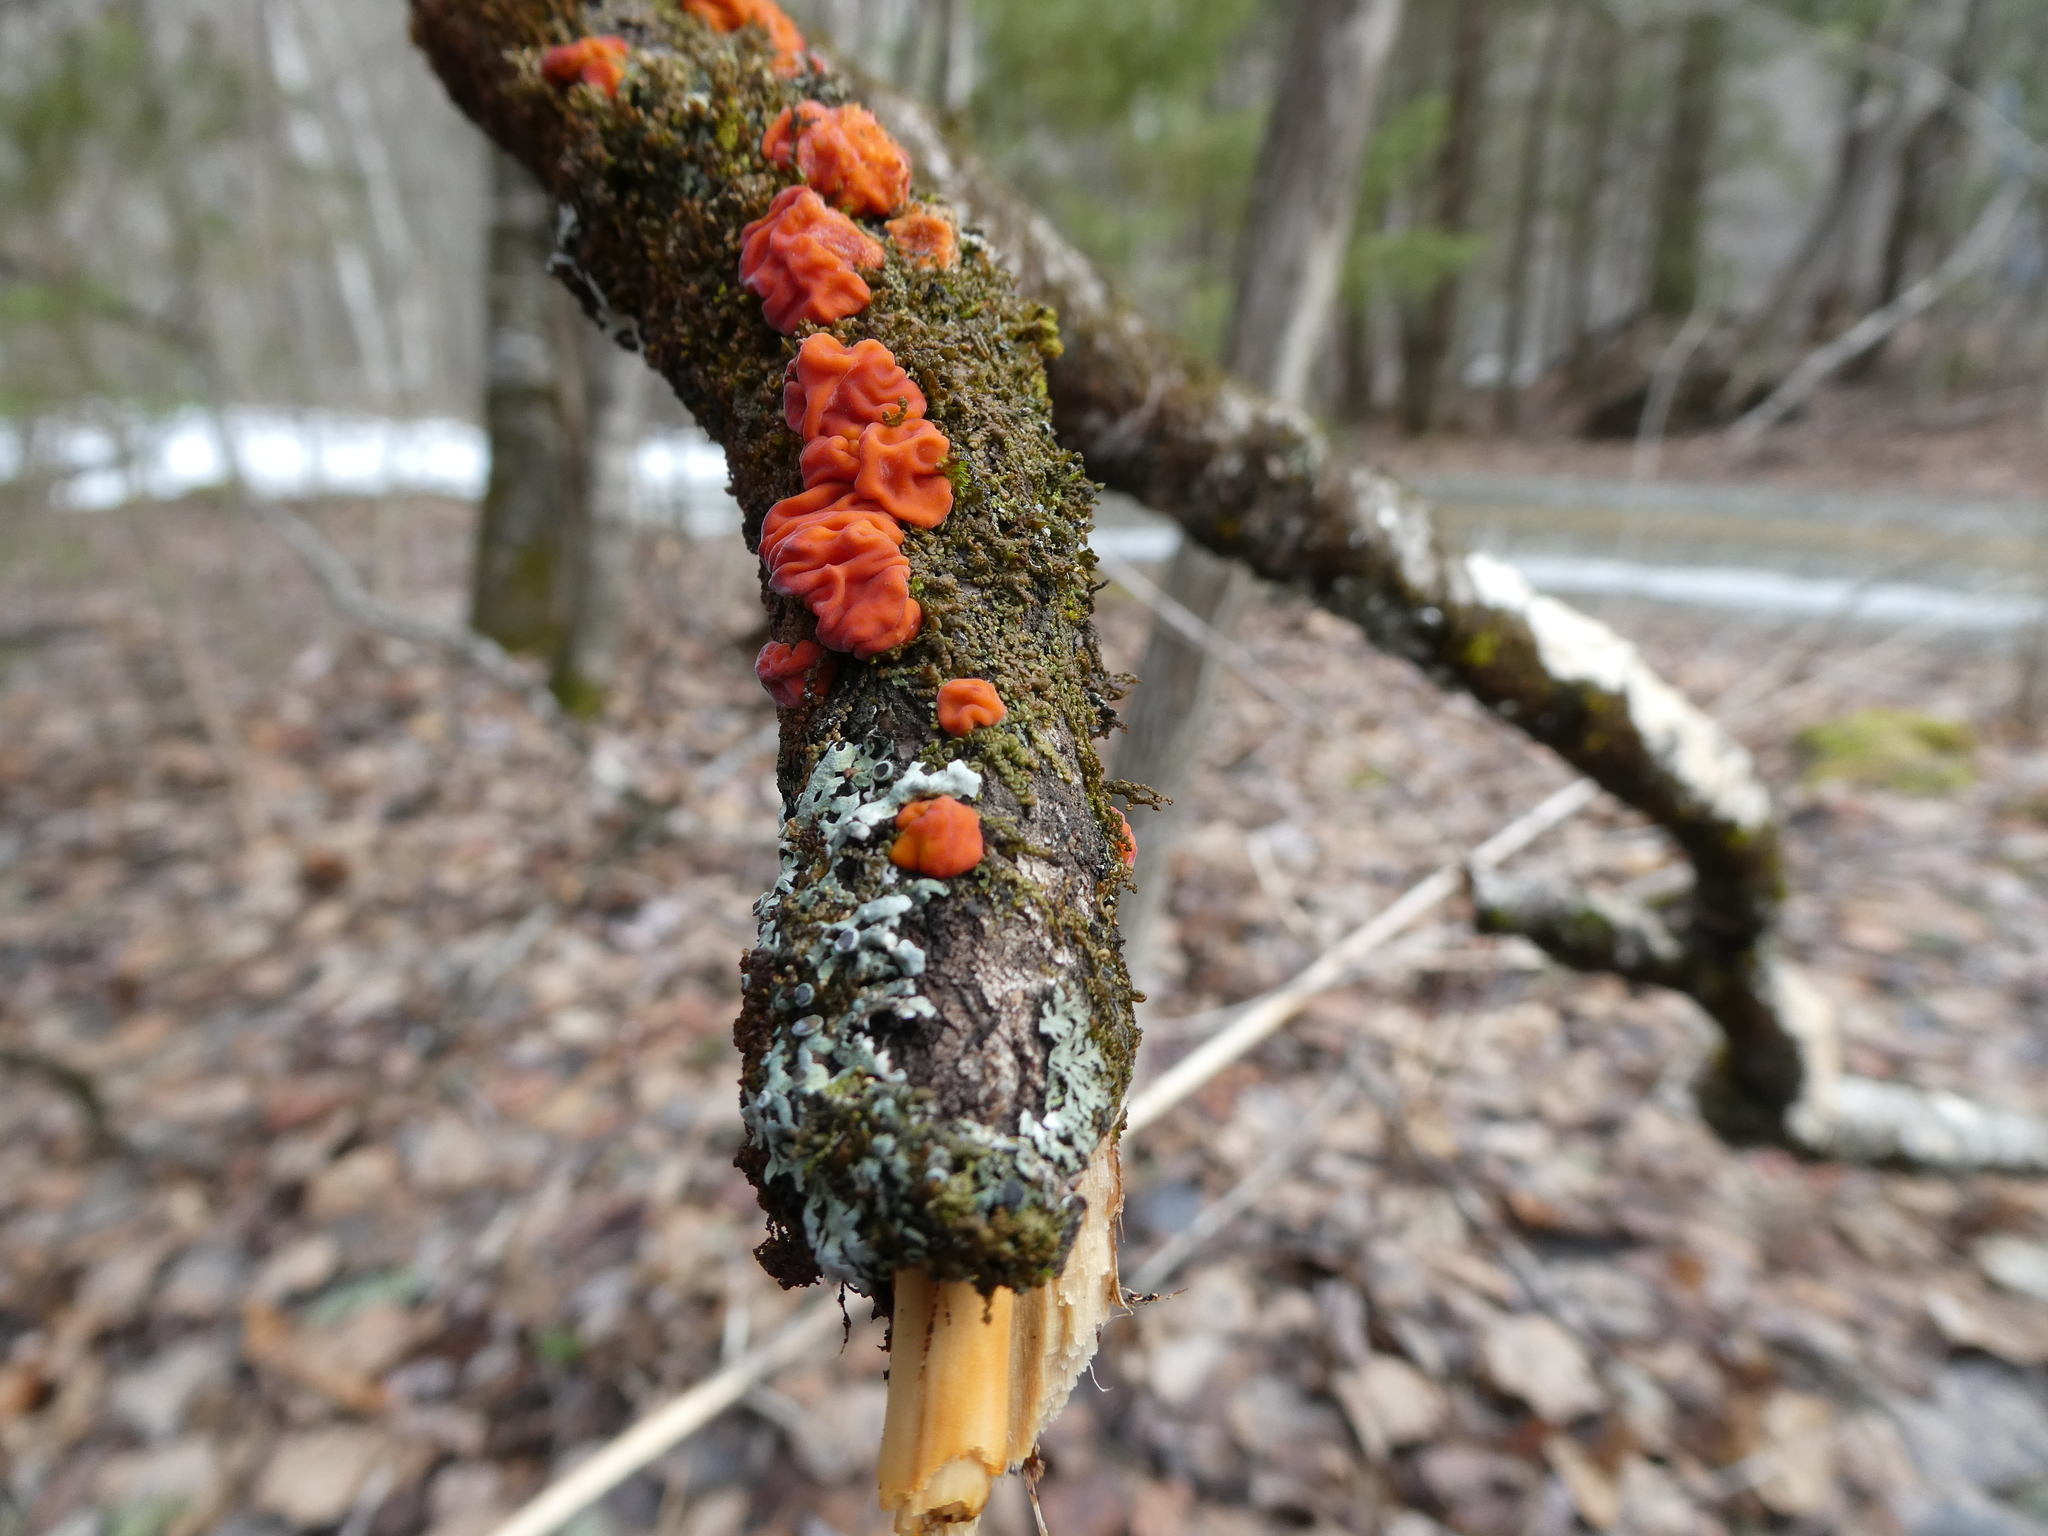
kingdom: Fungi
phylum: Basidiomycota
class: Agaricomycetes
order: Russulales
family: Peniophoraceae
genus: Peniophora
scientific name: Peniophora rufa
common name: Red tree brain fungus
